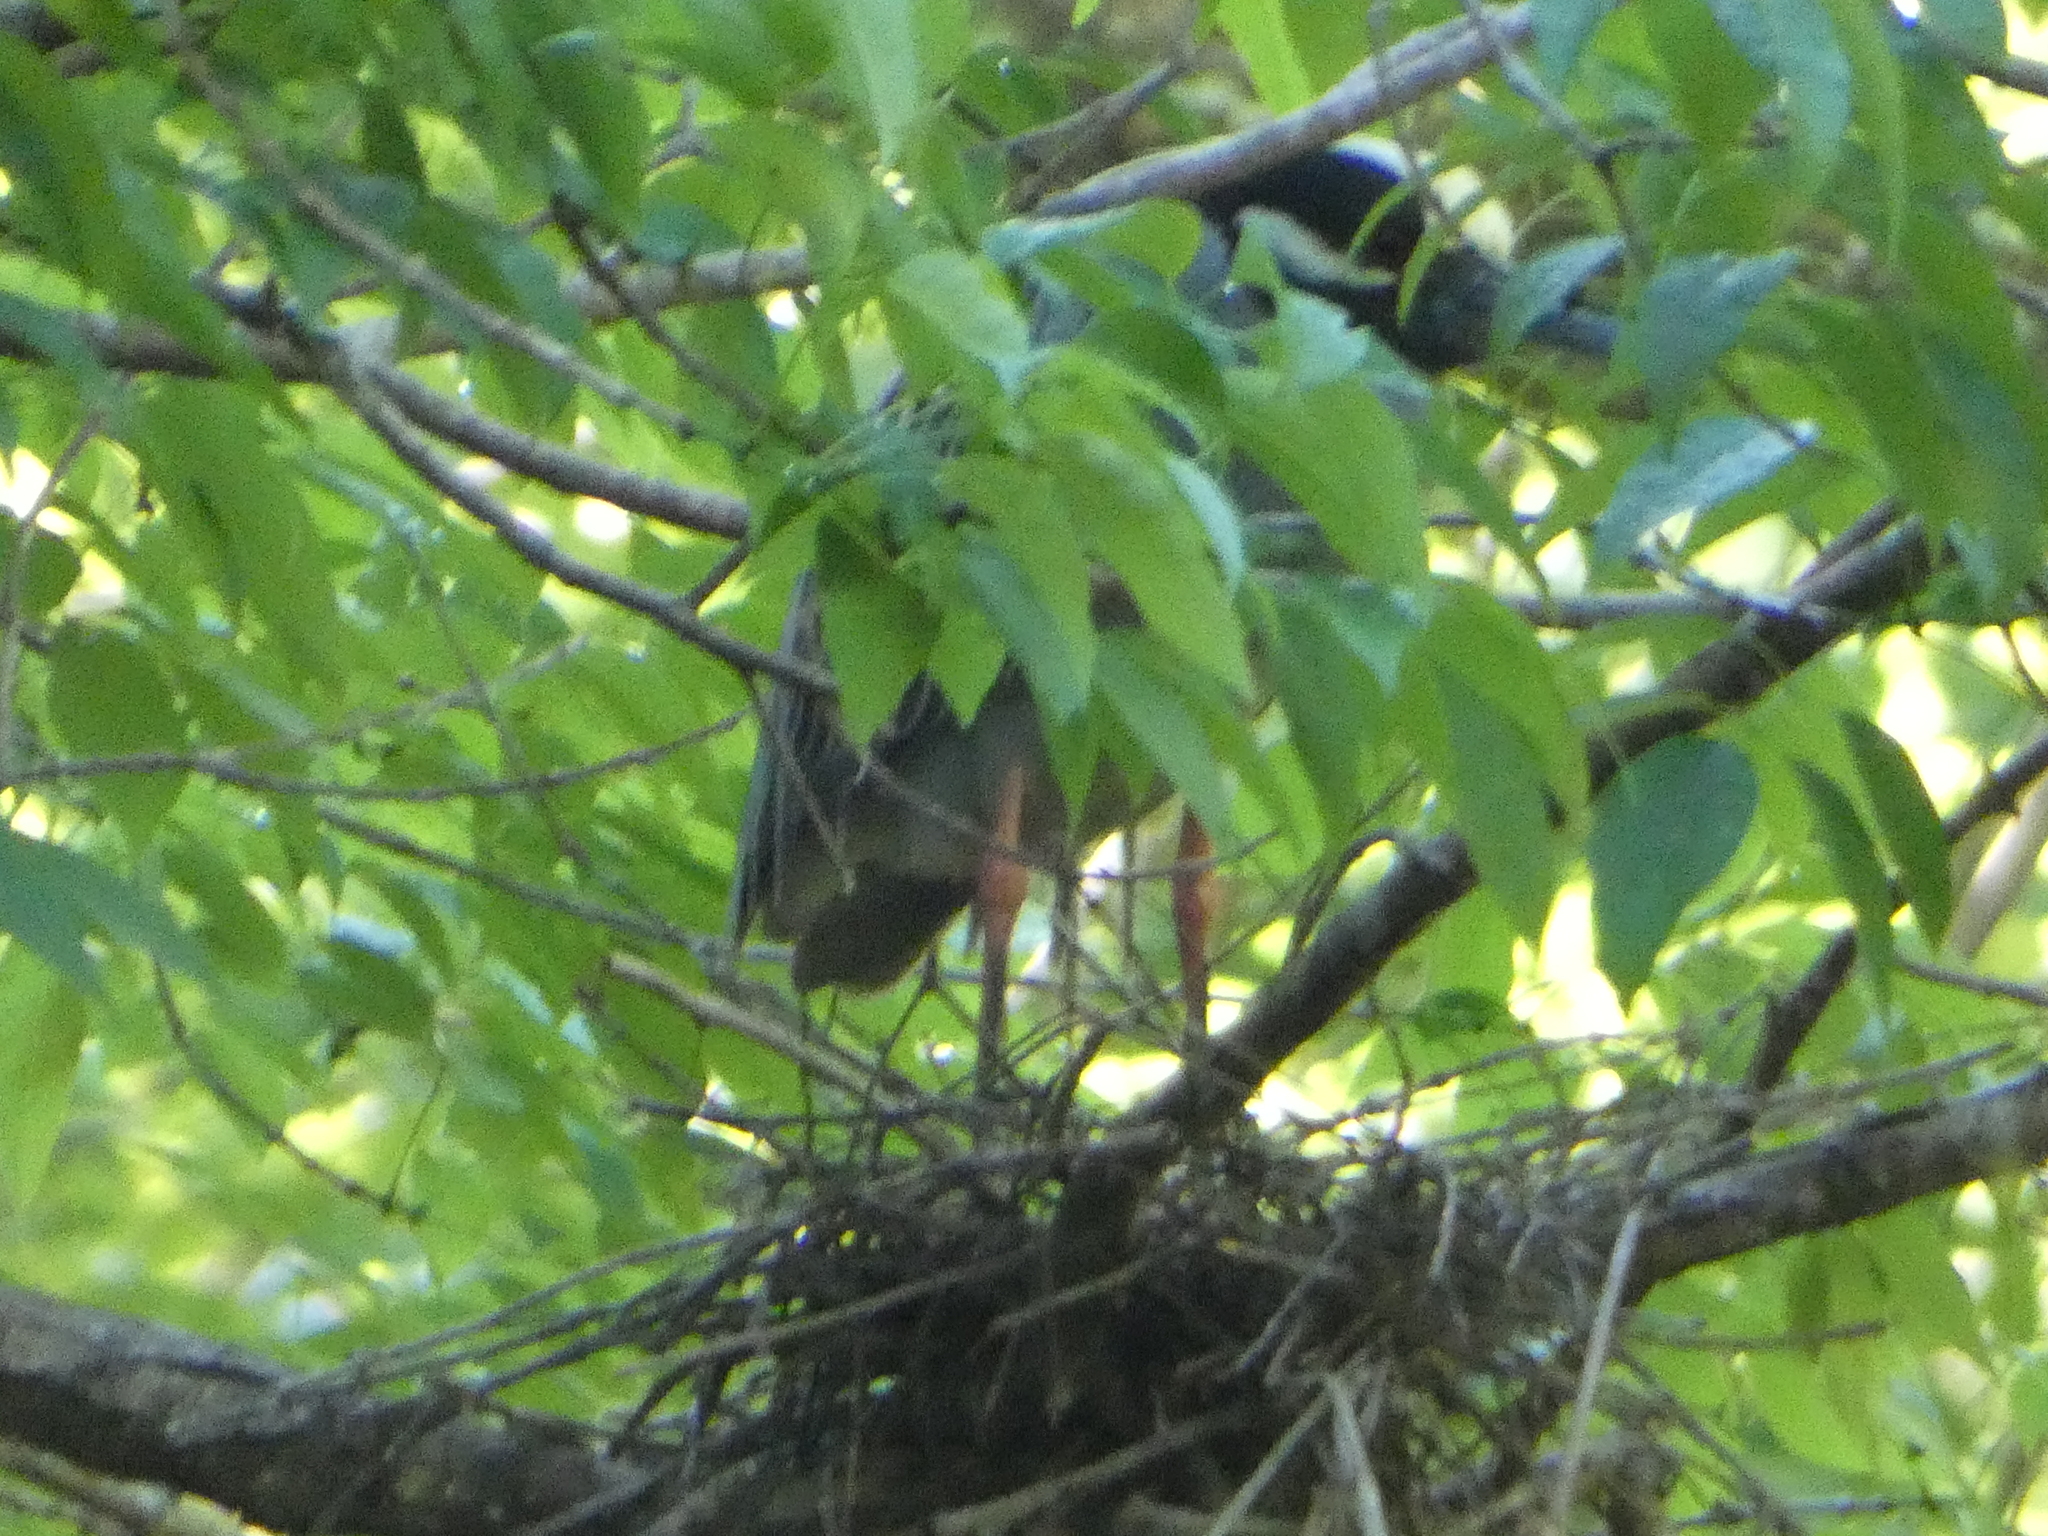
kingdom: Animalia
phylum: Chordata
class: Aves
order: Pelecaniformes
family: Ardeidae
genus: Nyctanassa
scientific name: Nyctanassa violacea
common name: Yellow-crowned night heron
